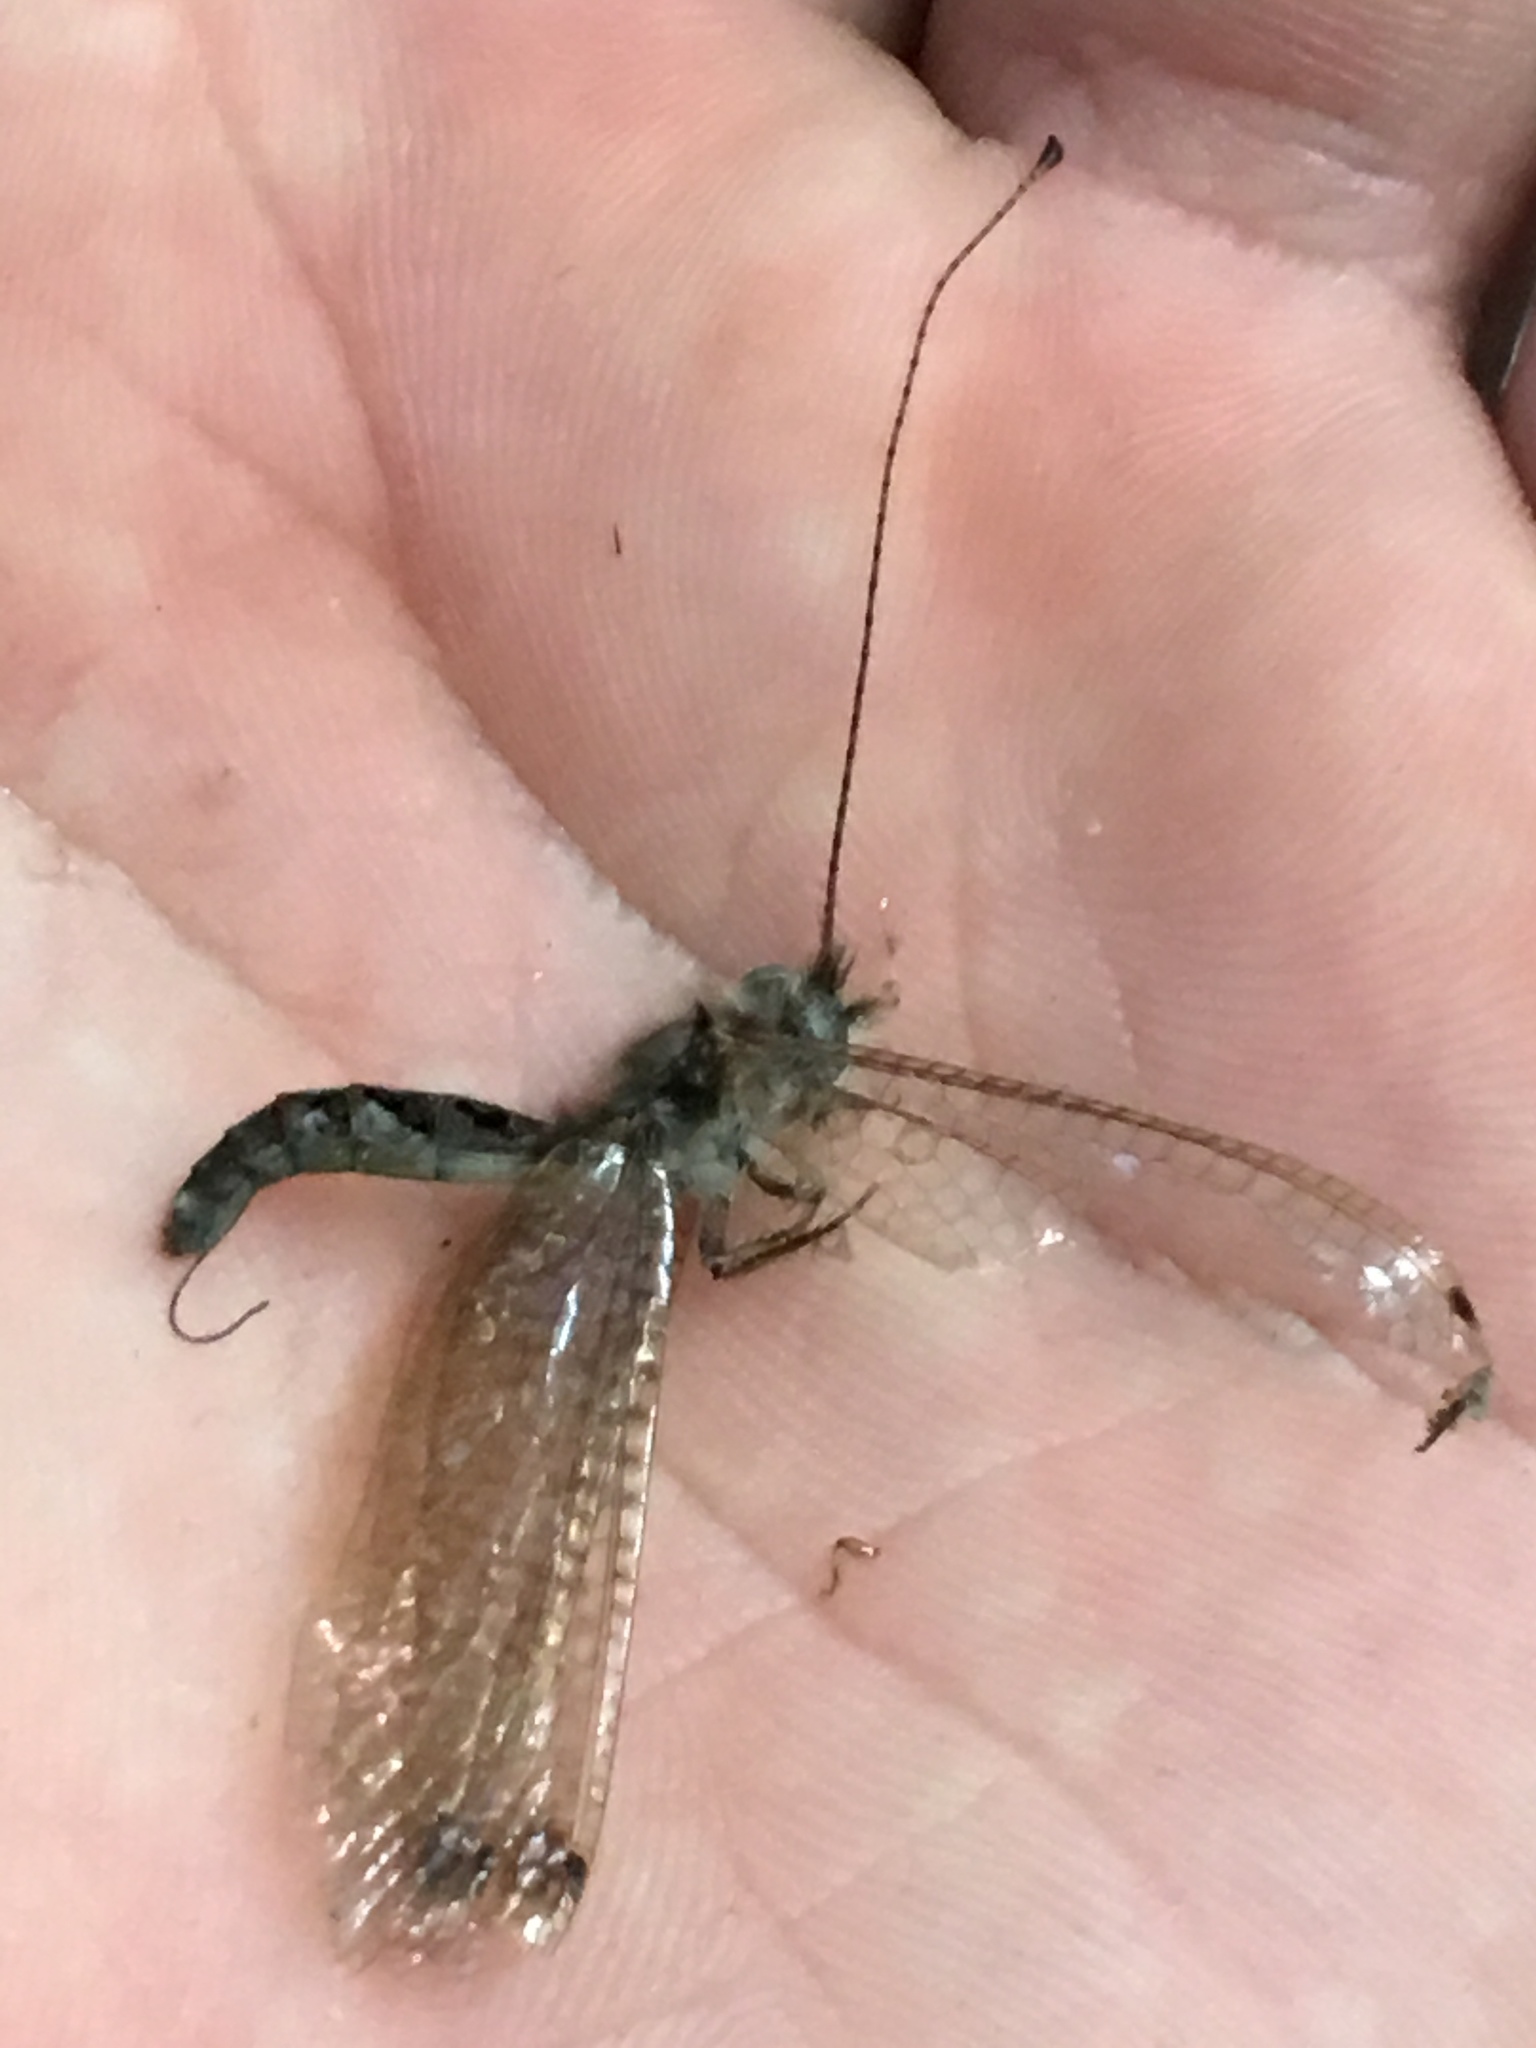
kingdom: Animalia
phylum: Arthropoda
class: Insecta
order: Neuroptera
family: Ascalaphidae
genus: Ululodes
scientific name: Ululodes macleayanus
